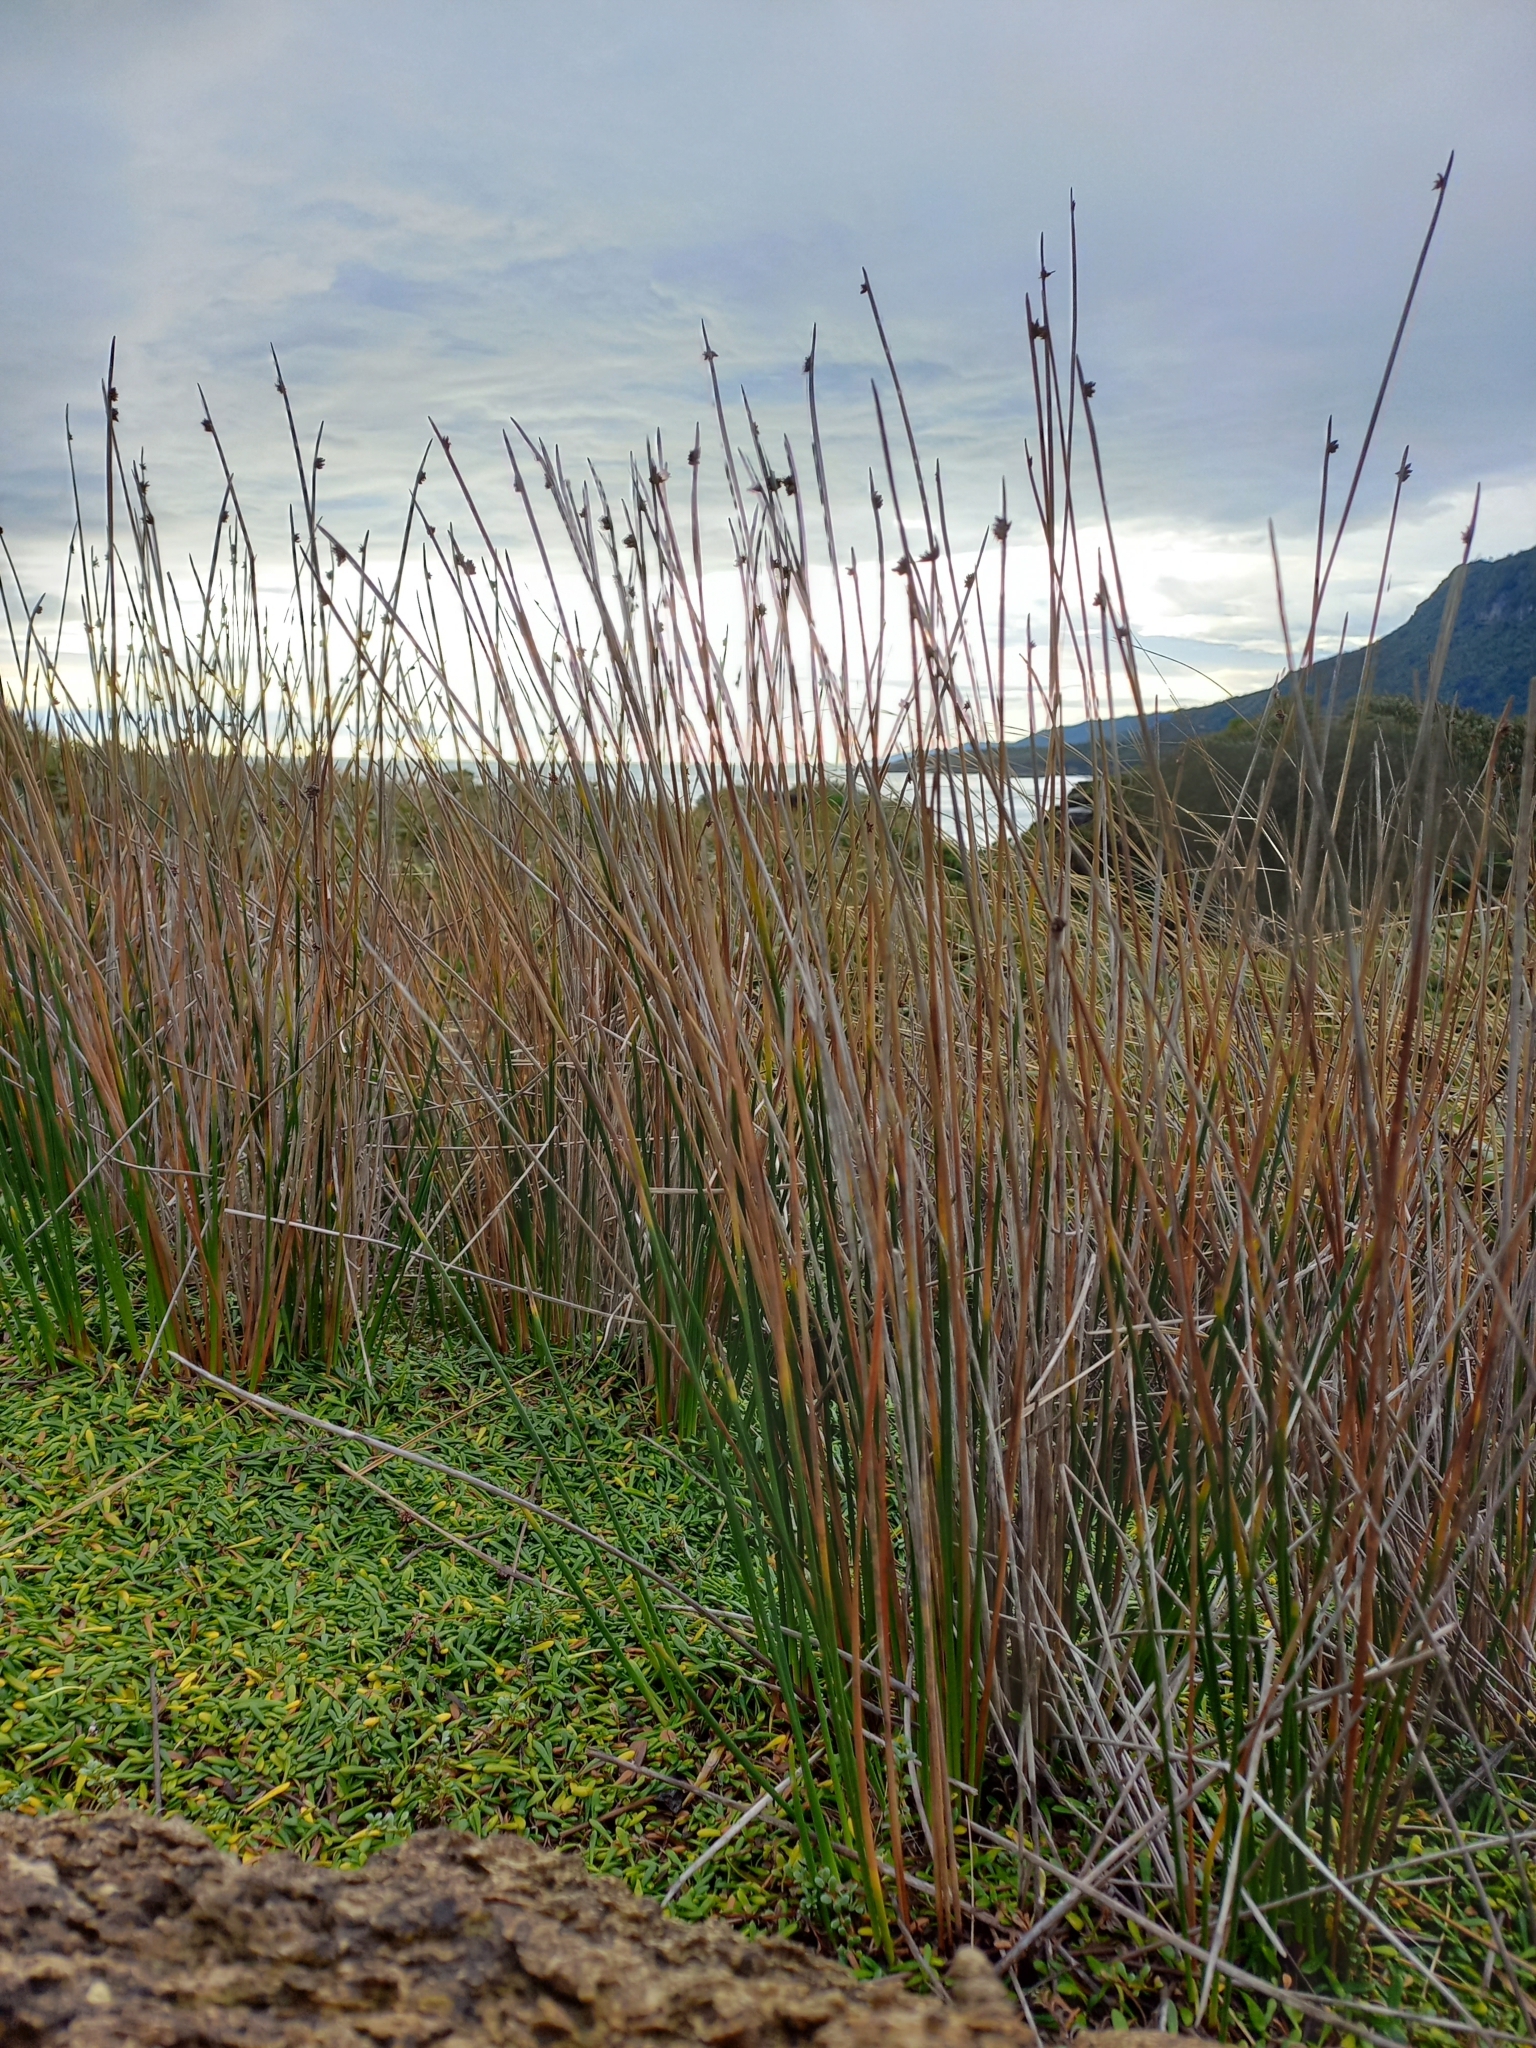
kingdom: Plantae
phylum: Tracheophyta
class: Liliopsida
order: Poales
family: Cyperaceae
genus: Ficinia
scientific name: Ficinia nodosa
